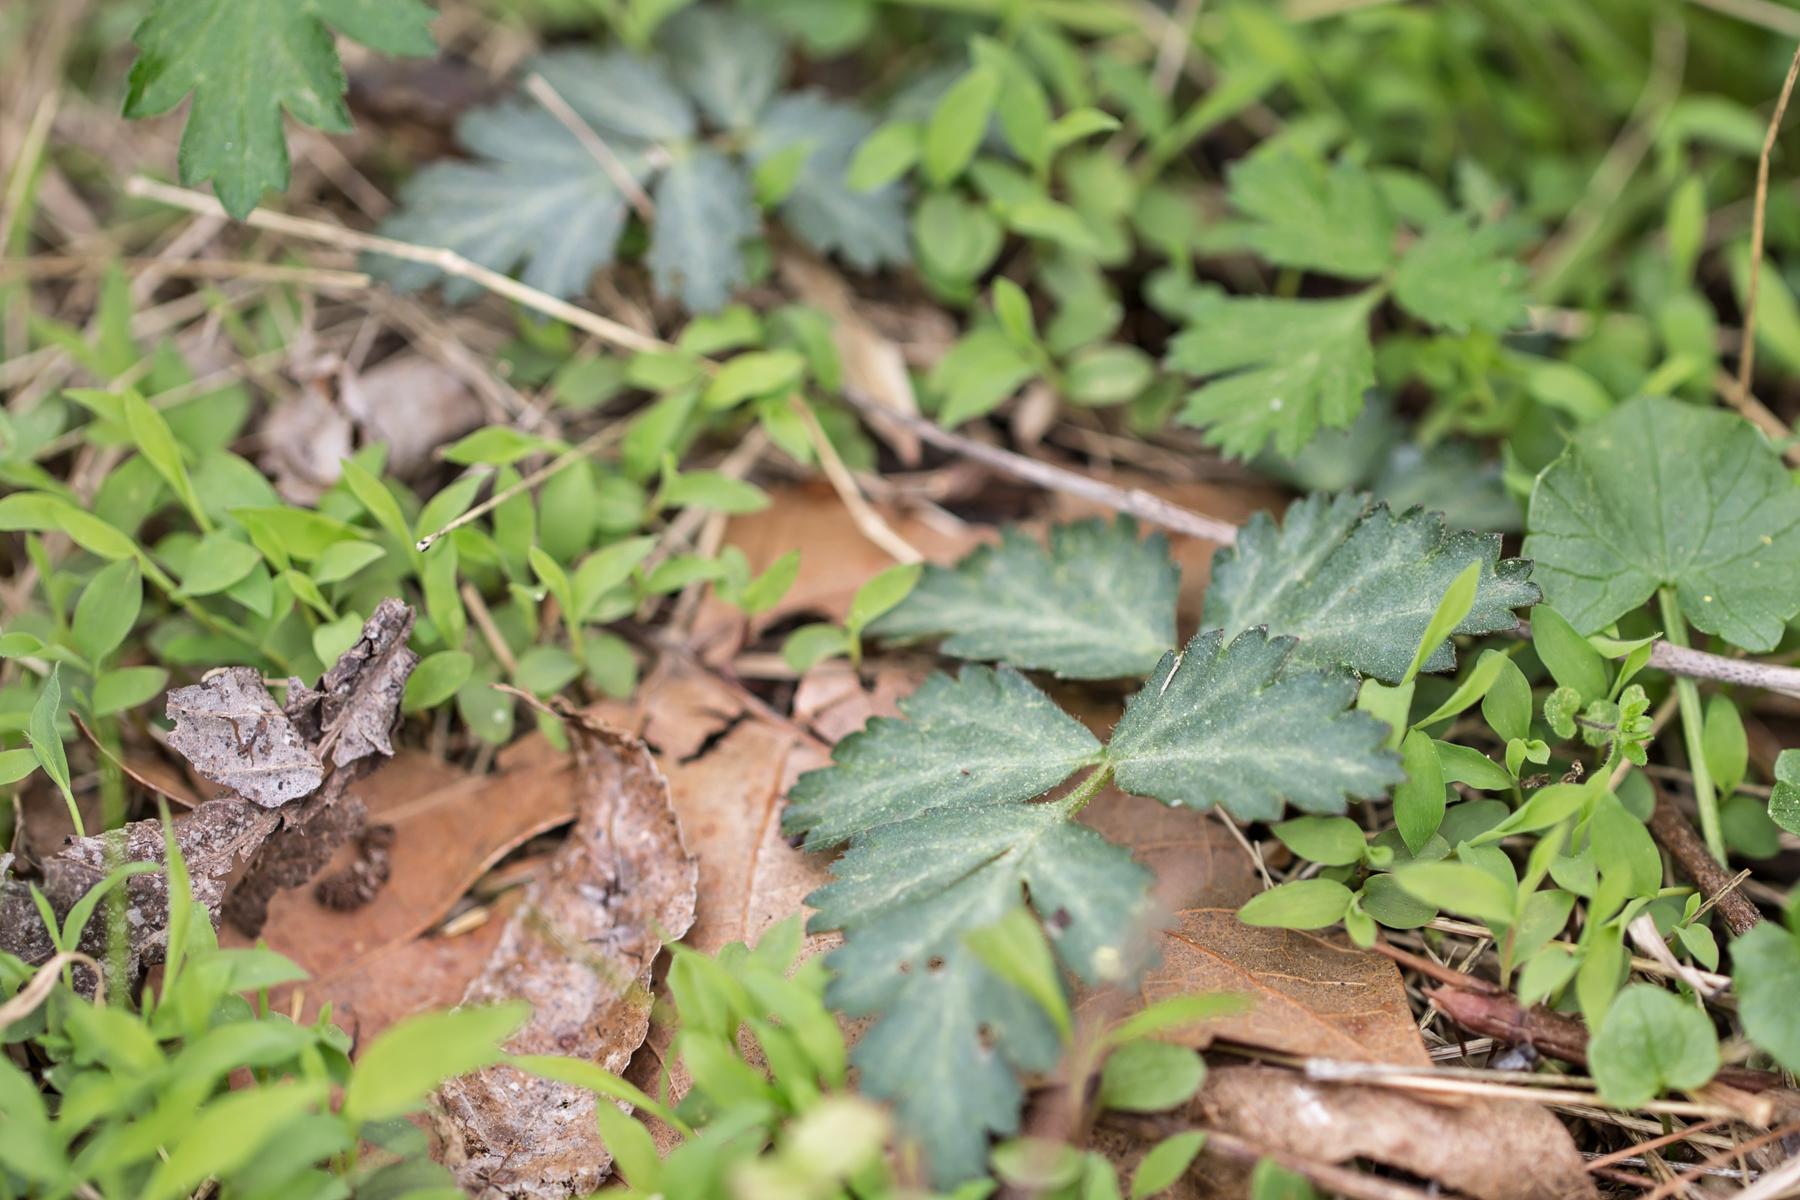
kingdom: Plantae
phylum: Tracheophyta
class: Magnoliopsida
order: Rosales
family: Rosaceae
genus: Geum
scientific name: Geum canadense
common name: White avens
